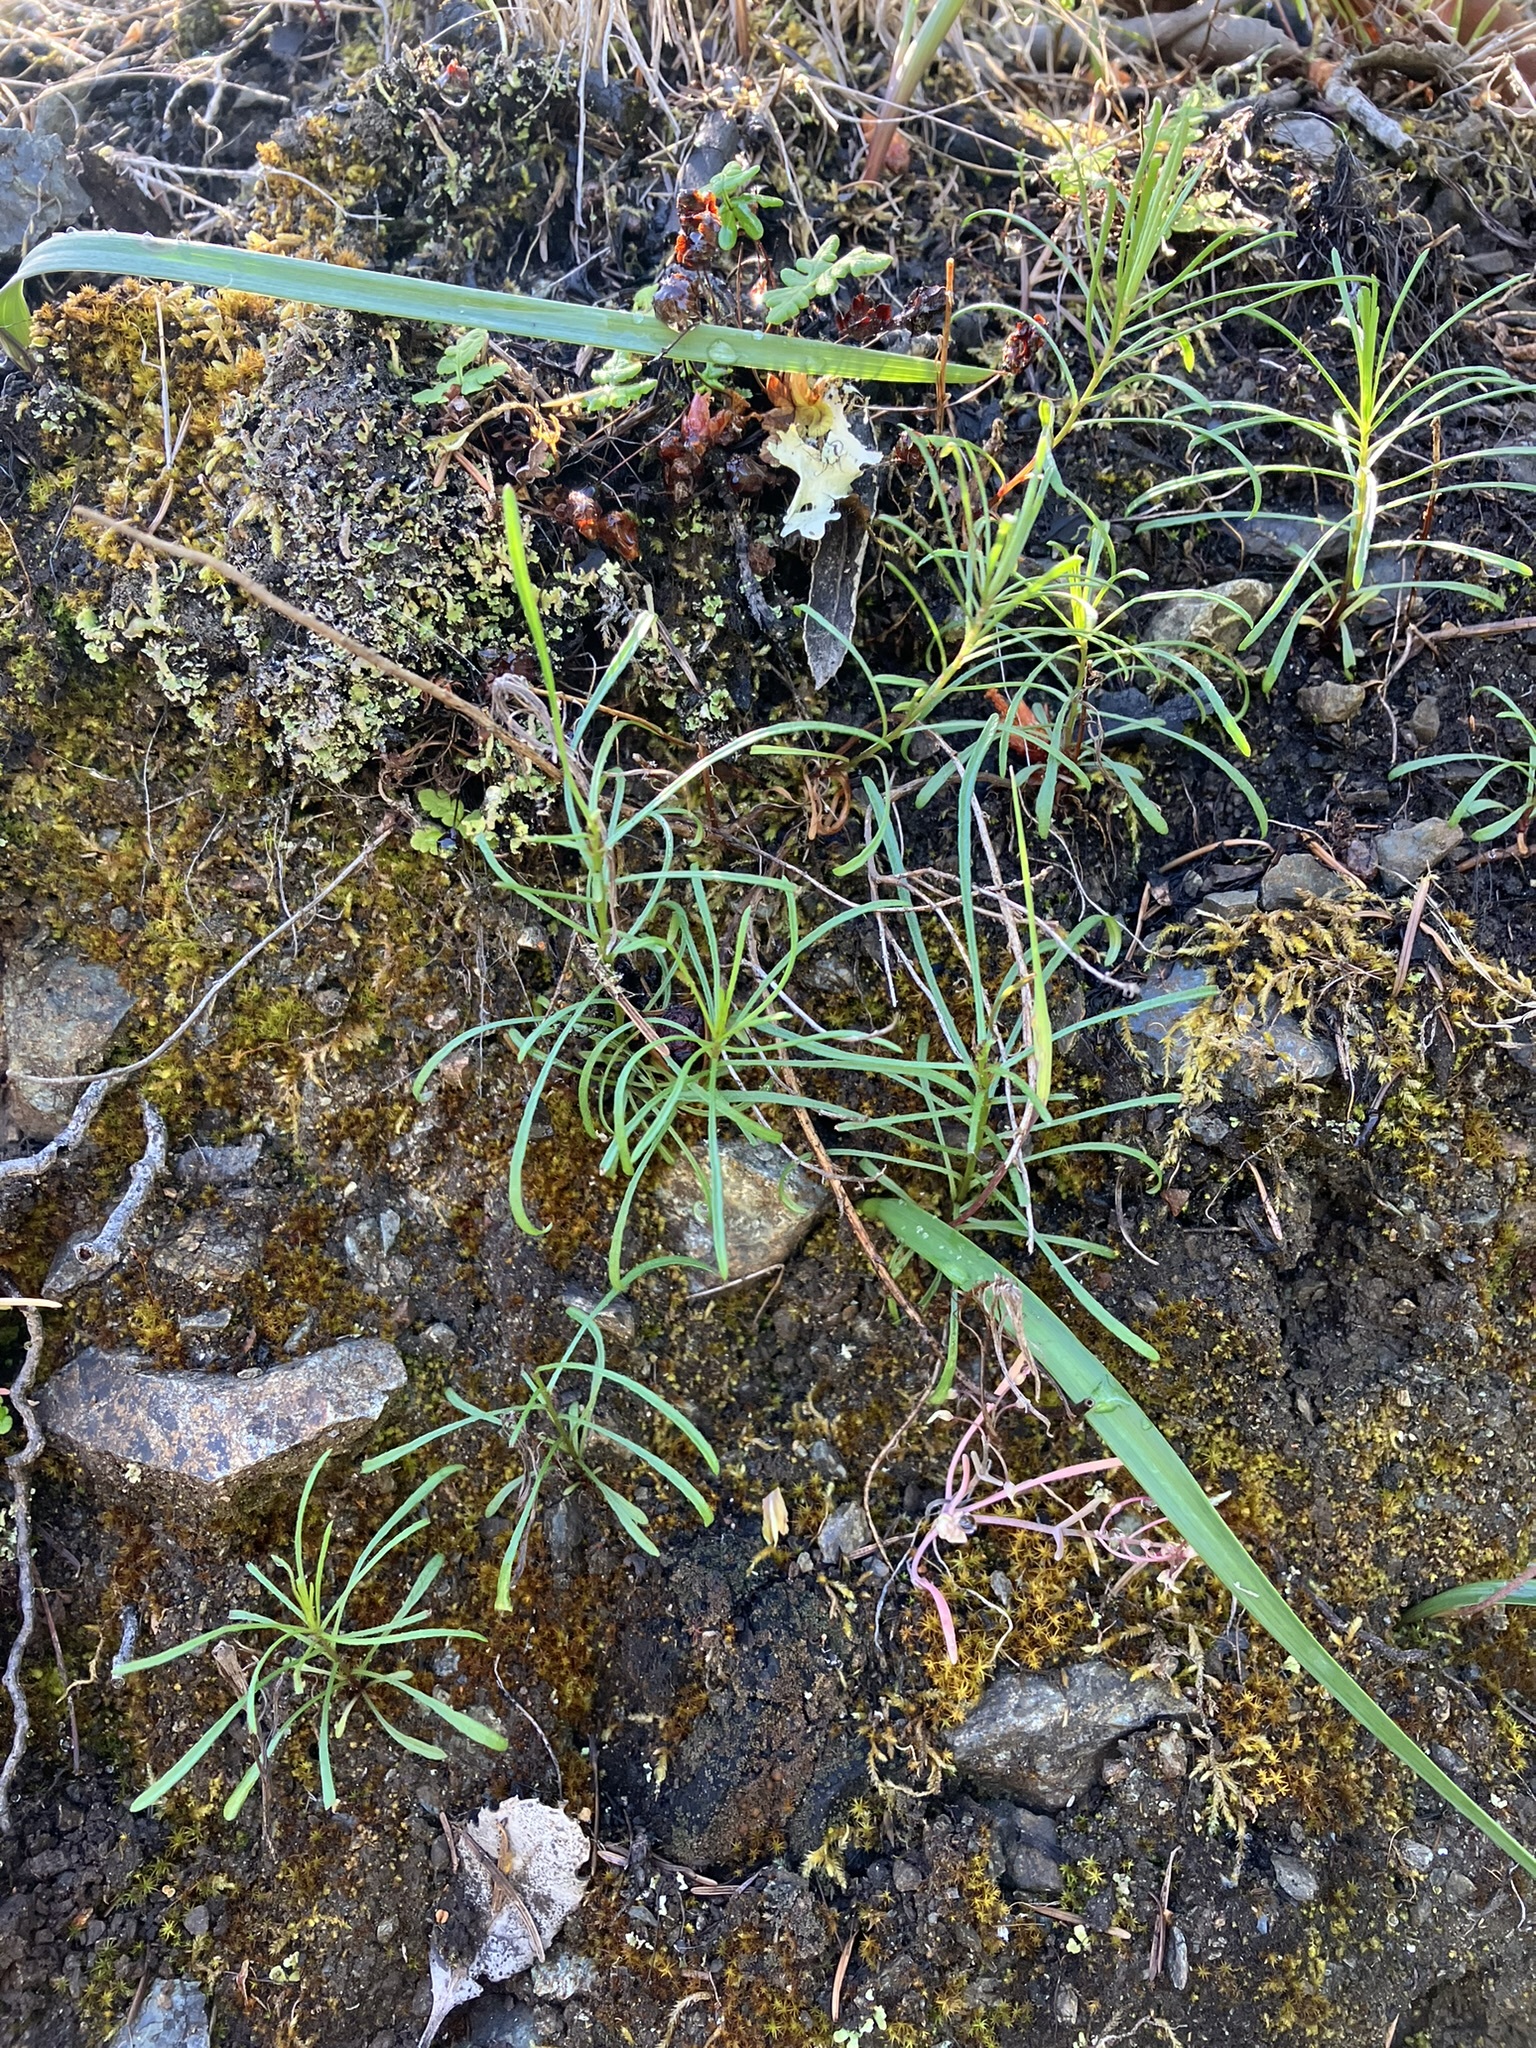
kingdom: Plantae
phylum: Tracheophyta
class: Magnoliopsida
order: Asterales
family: Asteraceae
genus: Erigeron
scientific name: Erigeron greenei
